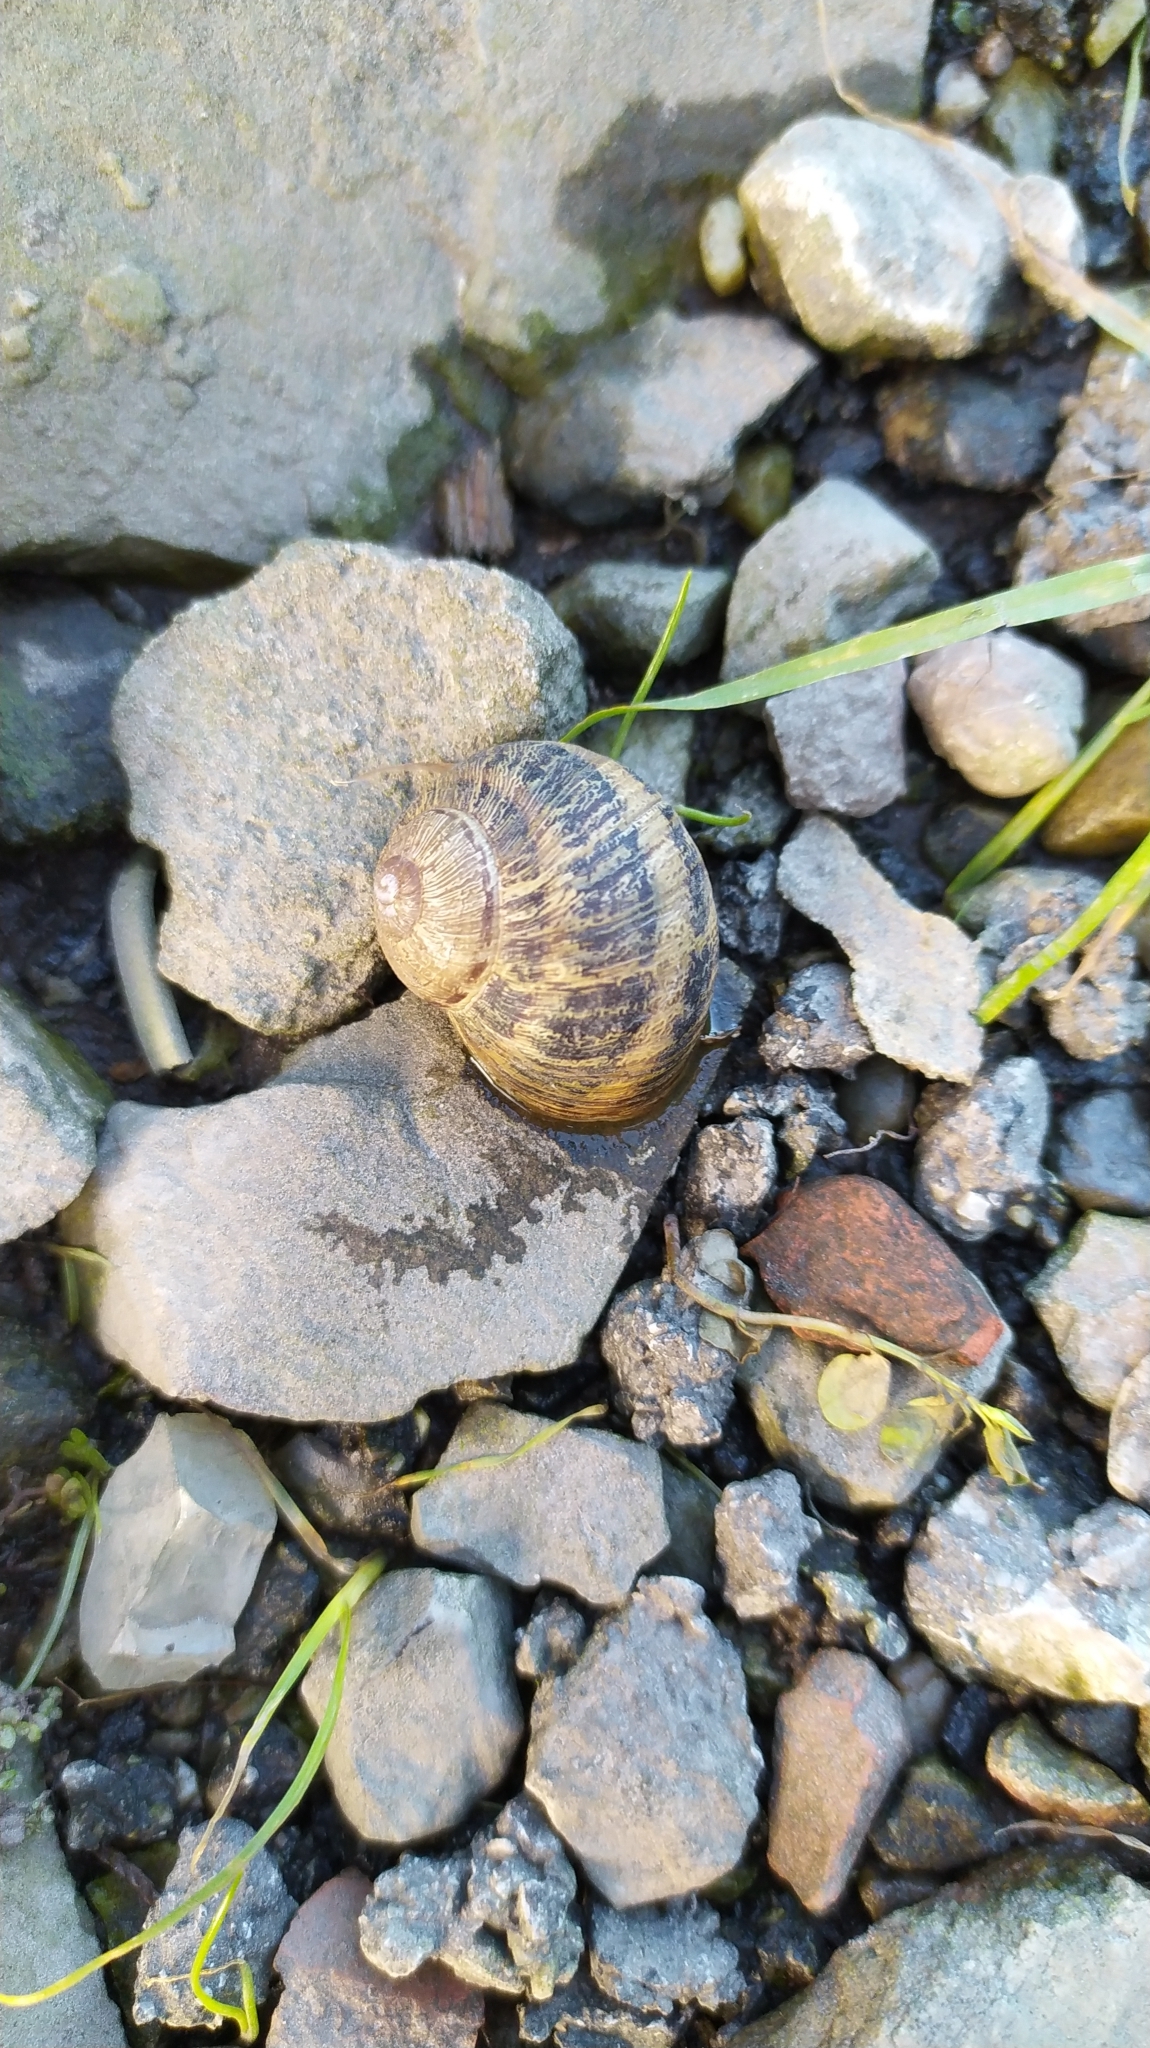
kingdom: Animalia
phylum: Mollusca
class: Gastropoda
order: Stylommatophora
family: Helicidae
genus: Cornu
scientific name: Cornu aspersum
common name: Brown garden snail
